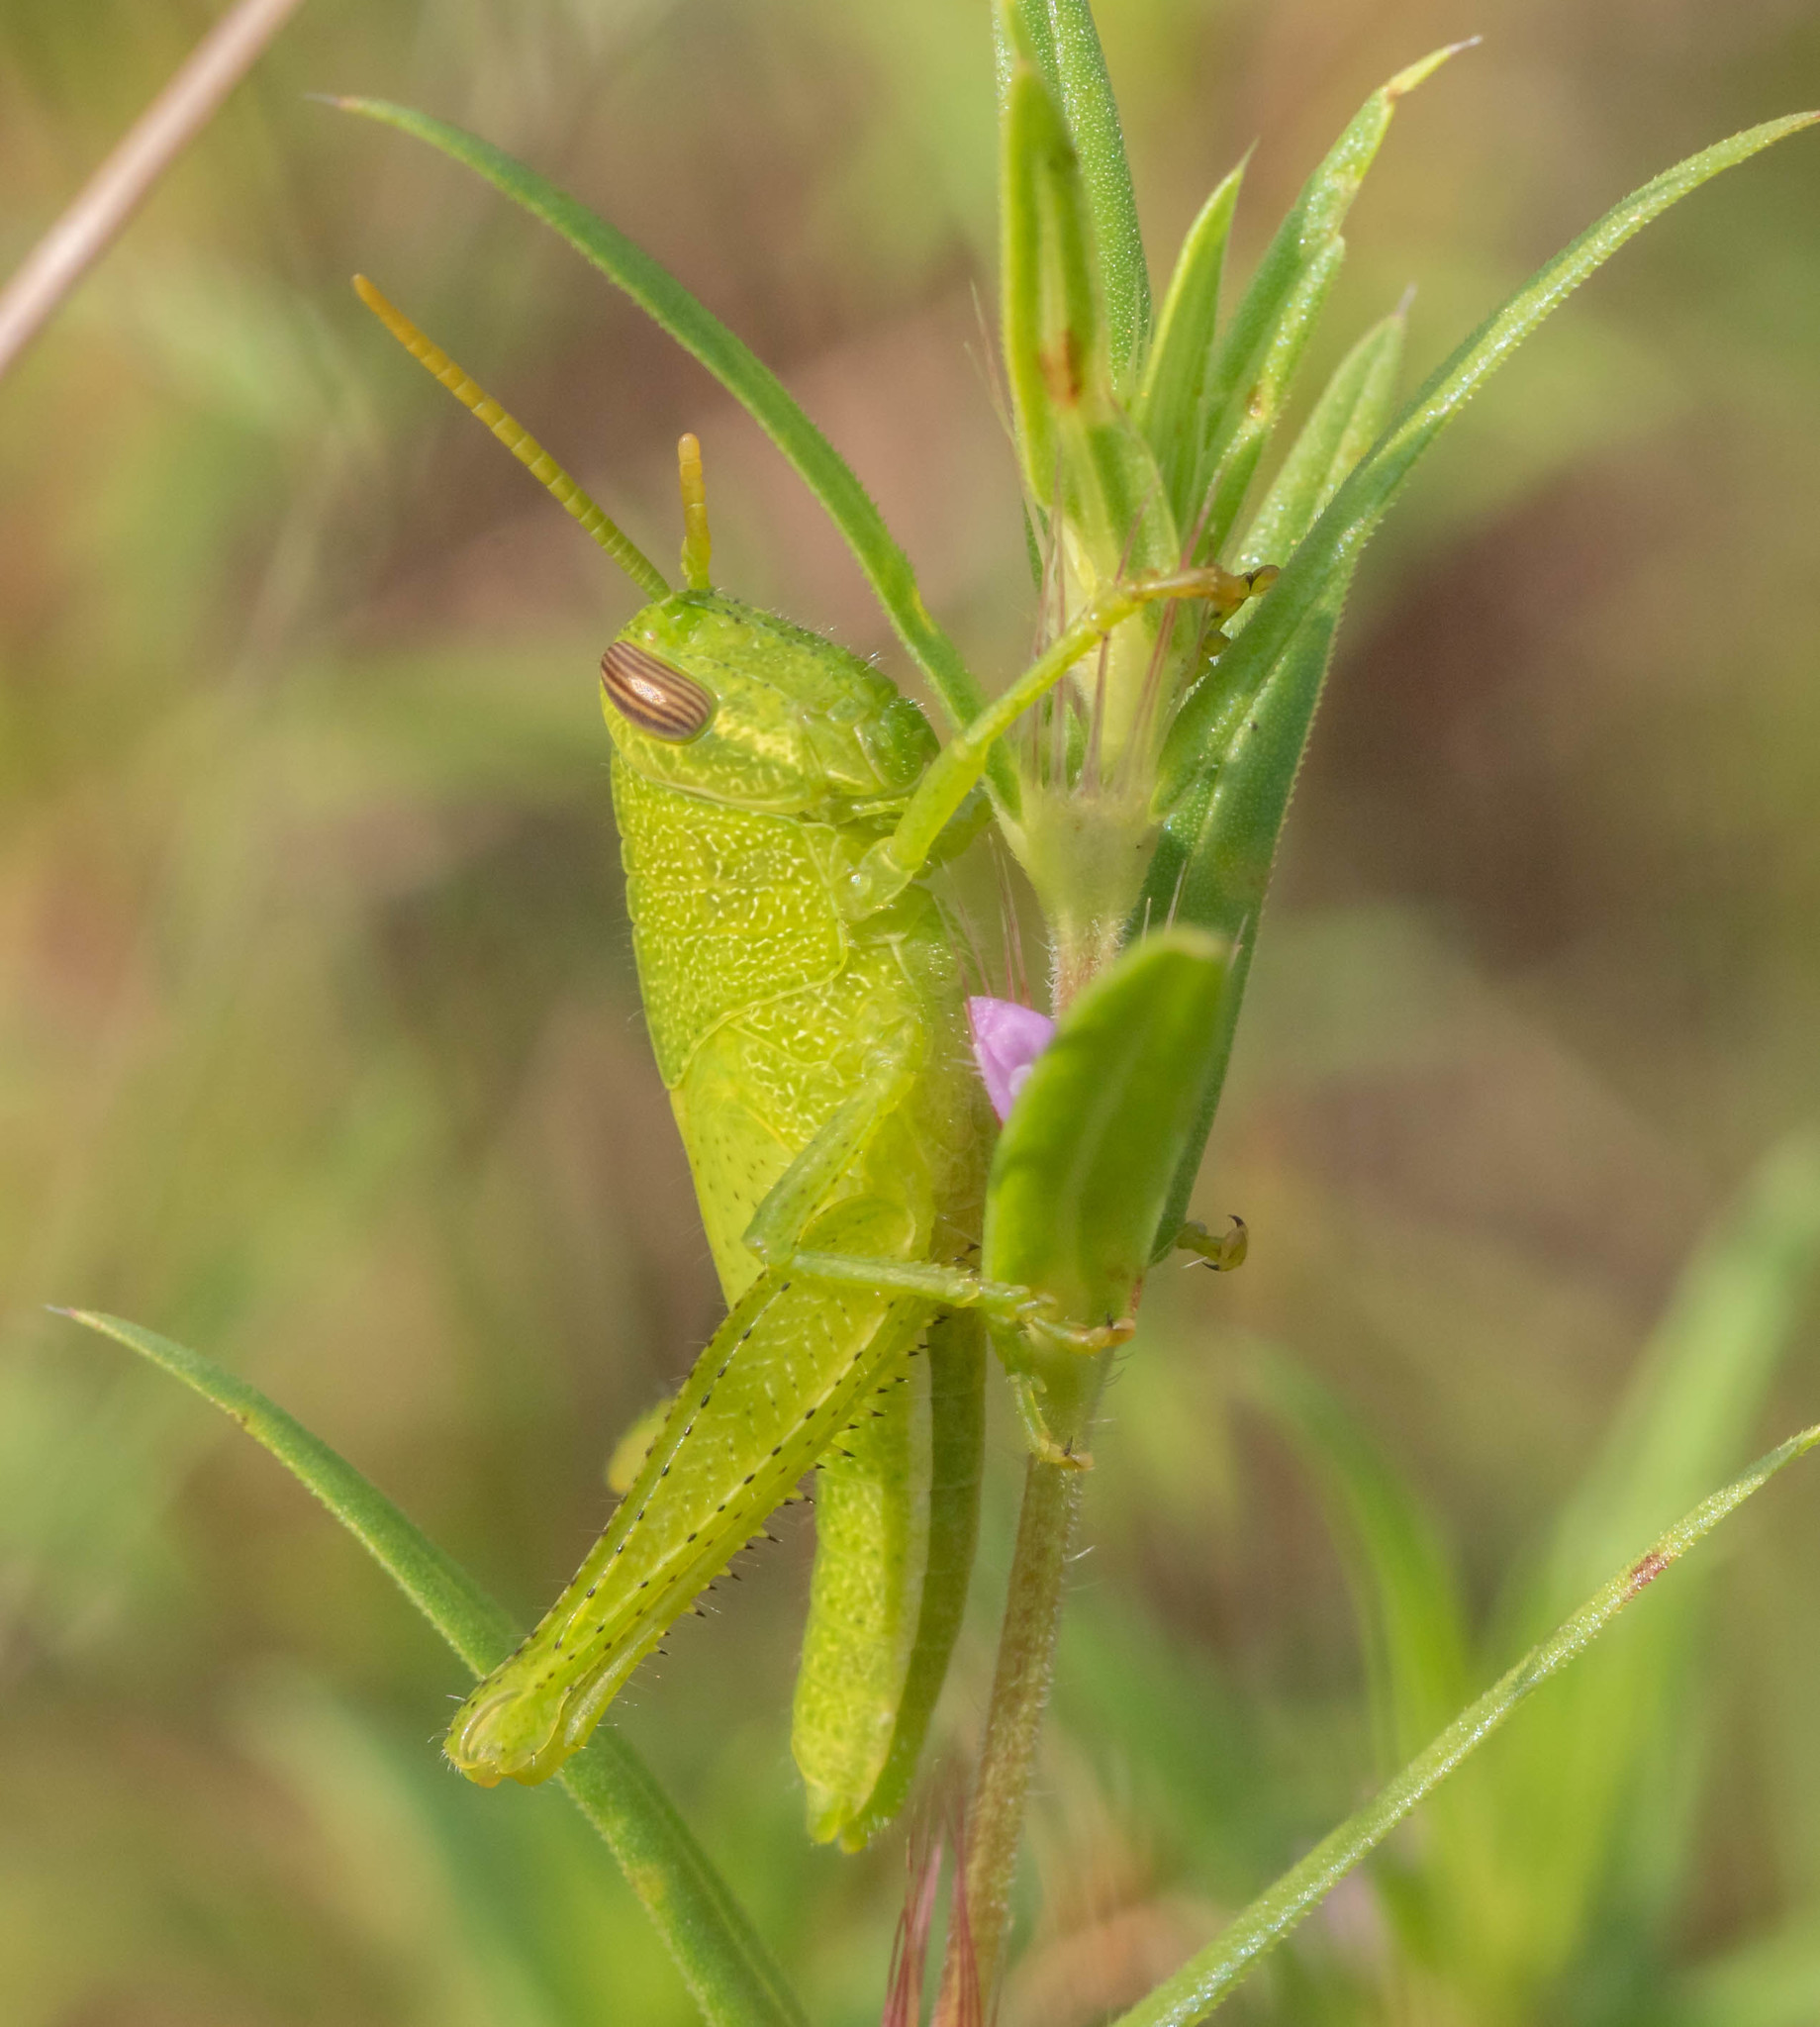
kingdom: Animalia
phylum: Arthropoda
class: Insecta
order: Orthoptera
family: Acrididae
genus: Schistocerca
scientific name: Schistocerca damnifica
